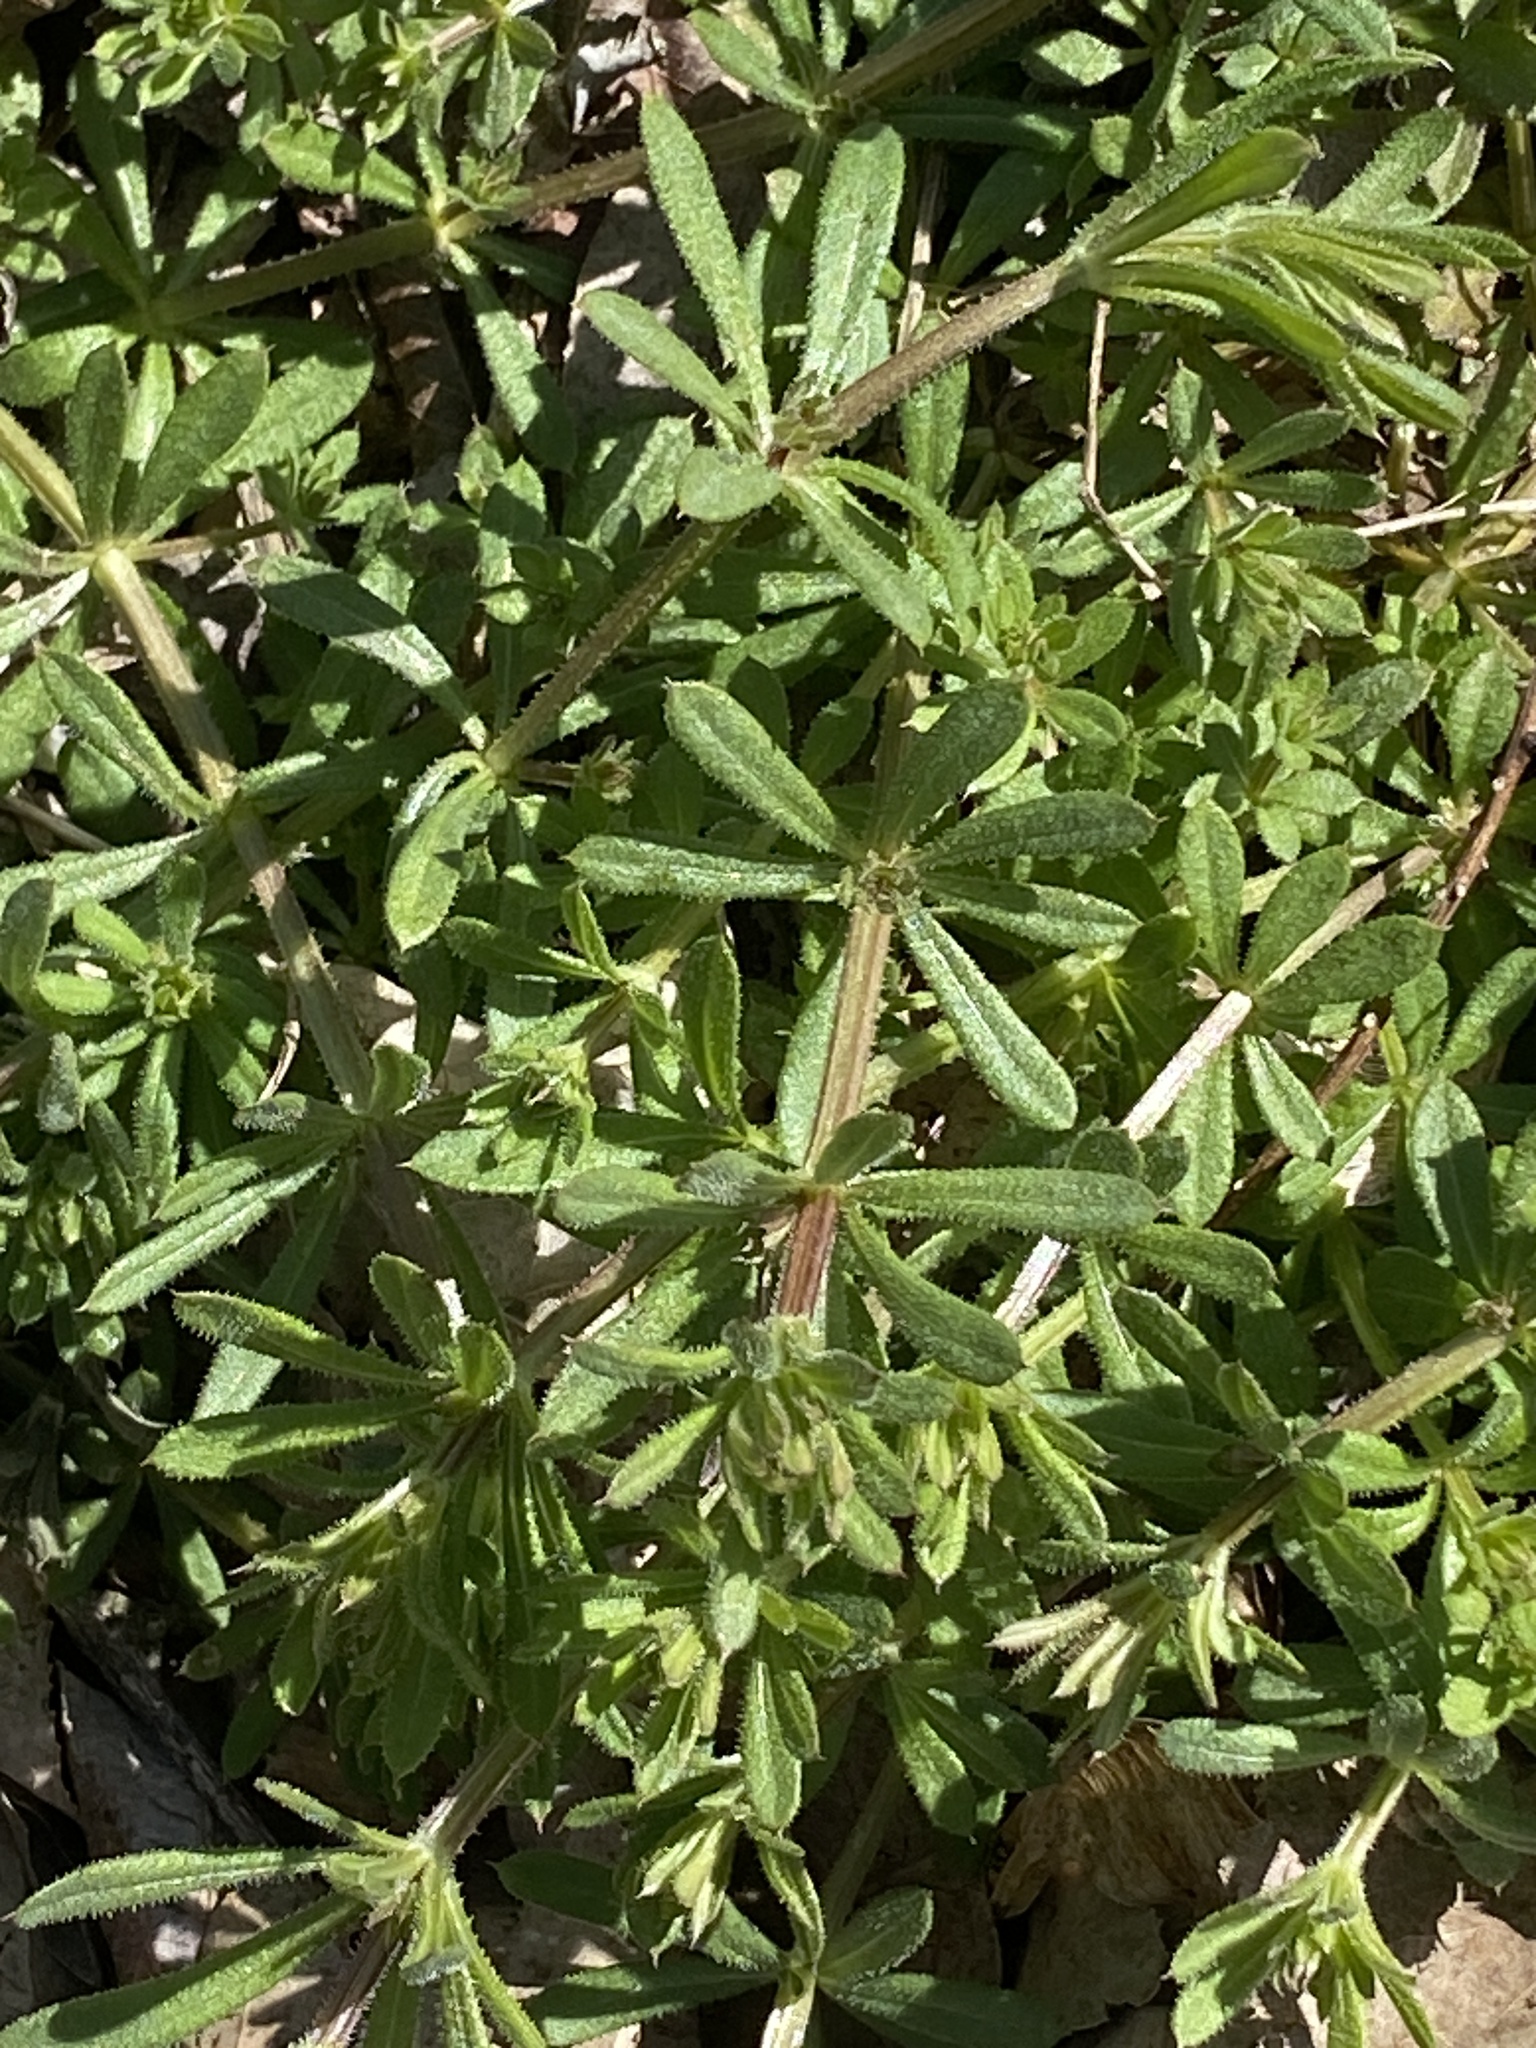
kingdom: Plantae
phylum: Tracheophyta
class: Magnoliopsida
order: Gentianales
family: Rubiaceae
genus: Galium
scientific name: Galium aparine
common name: Cleavers
